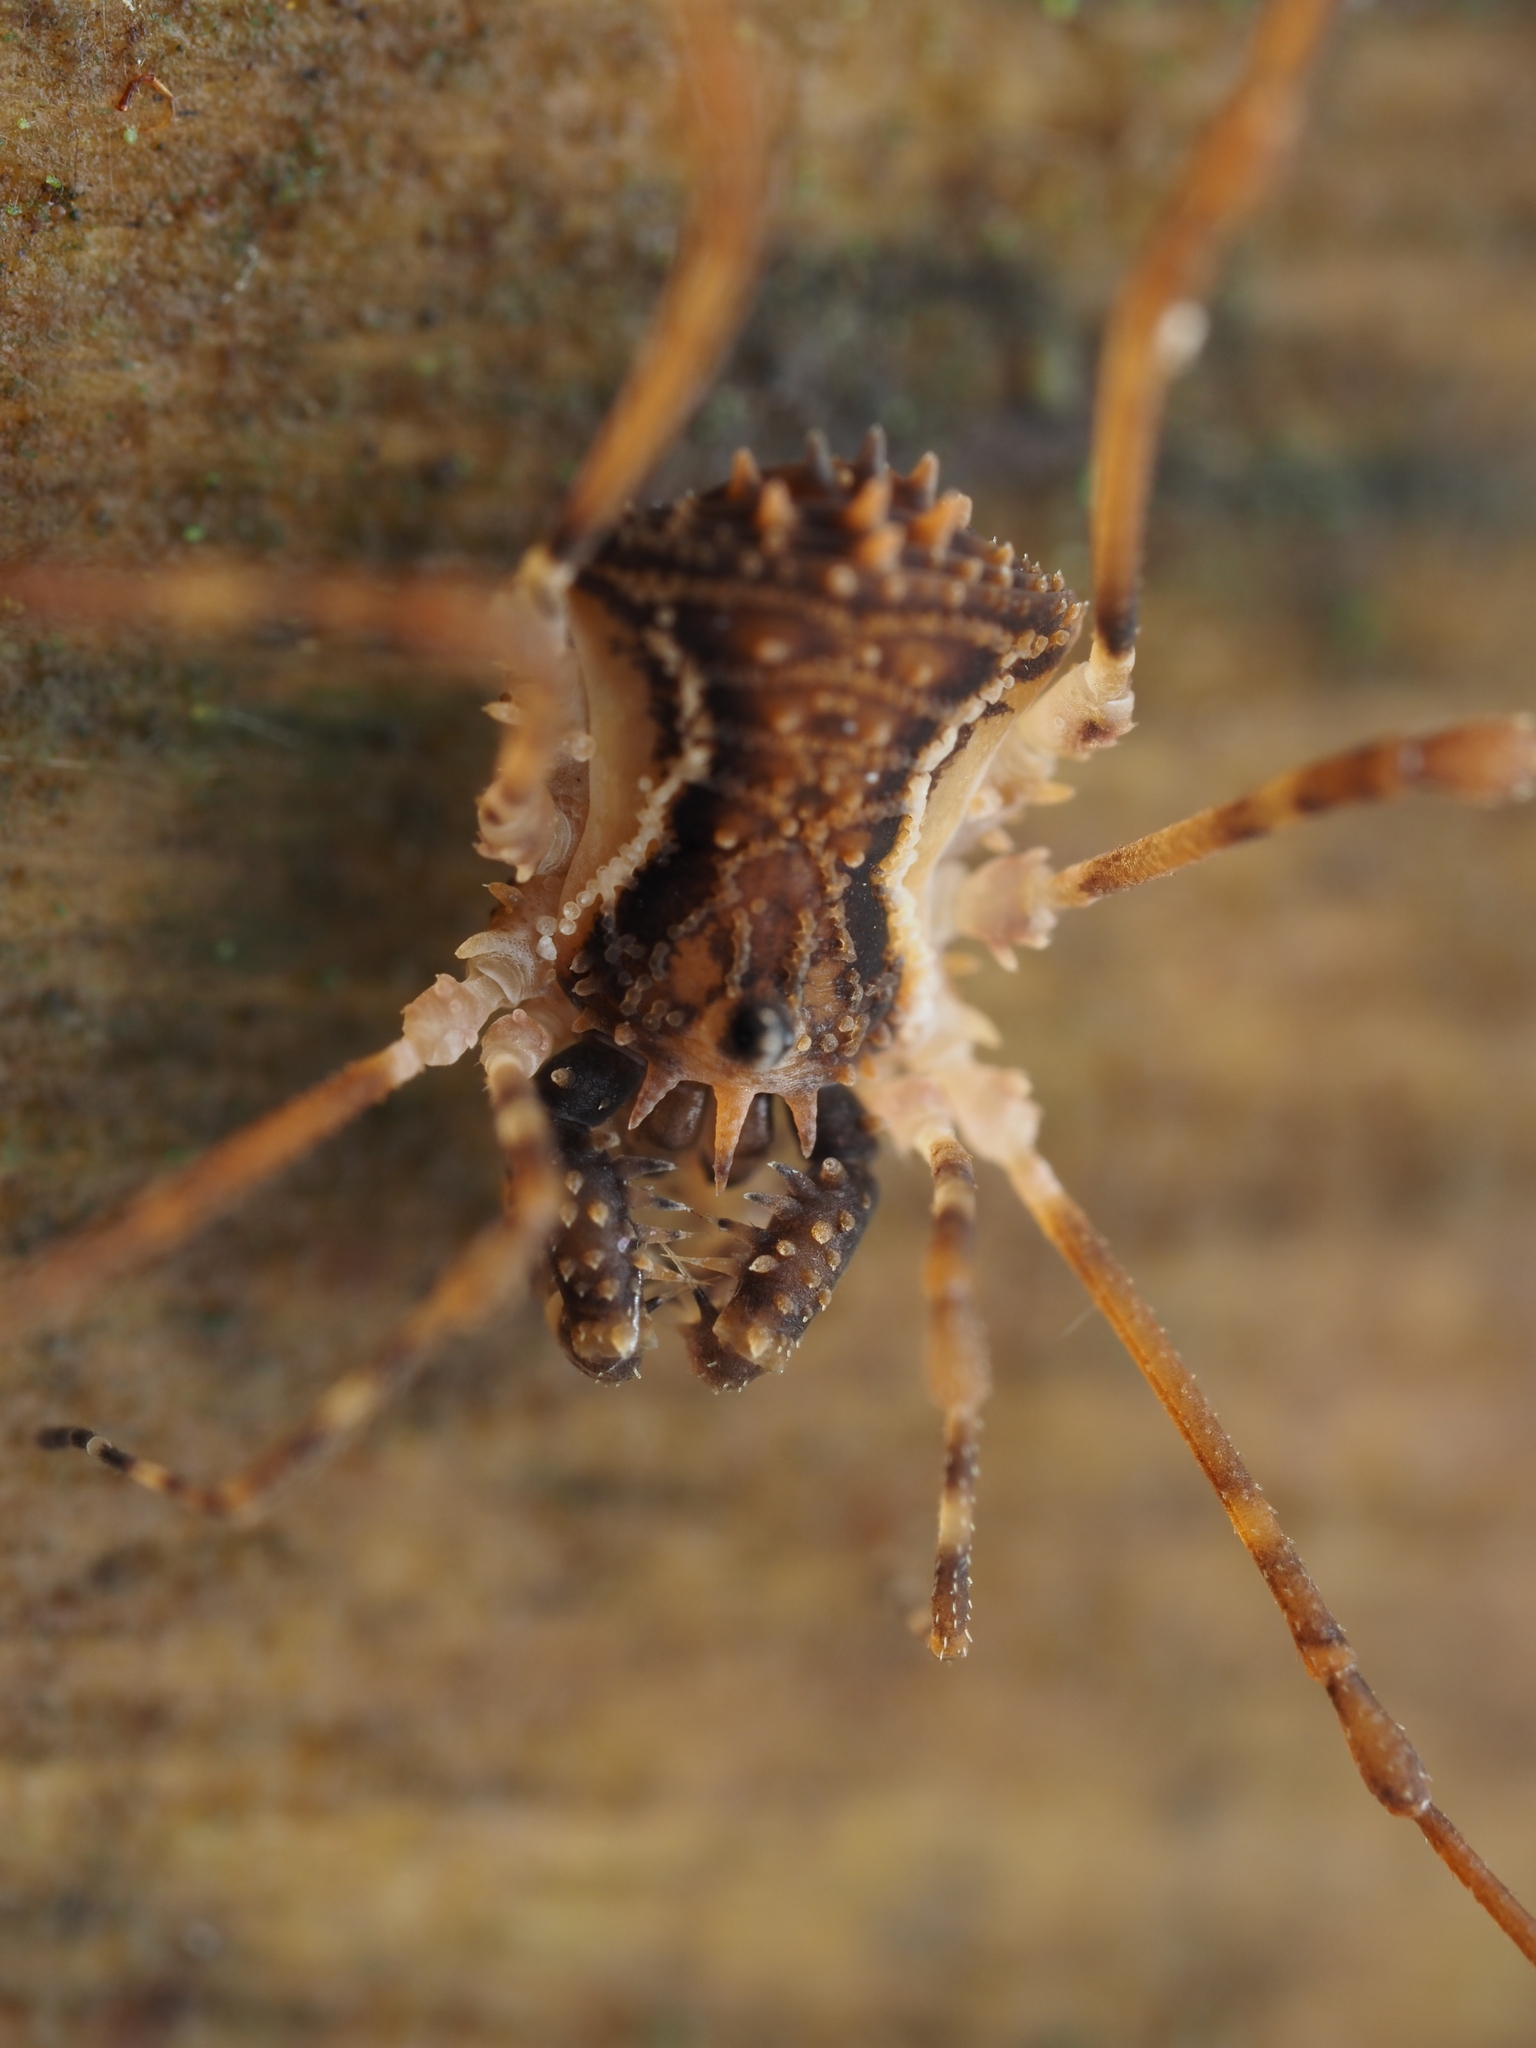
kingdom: Animalia
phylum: Arthropoda
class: Arachnida
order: Opiliones
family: Triaenonychidae
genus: Algidia
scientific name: Algidia chiltoni
